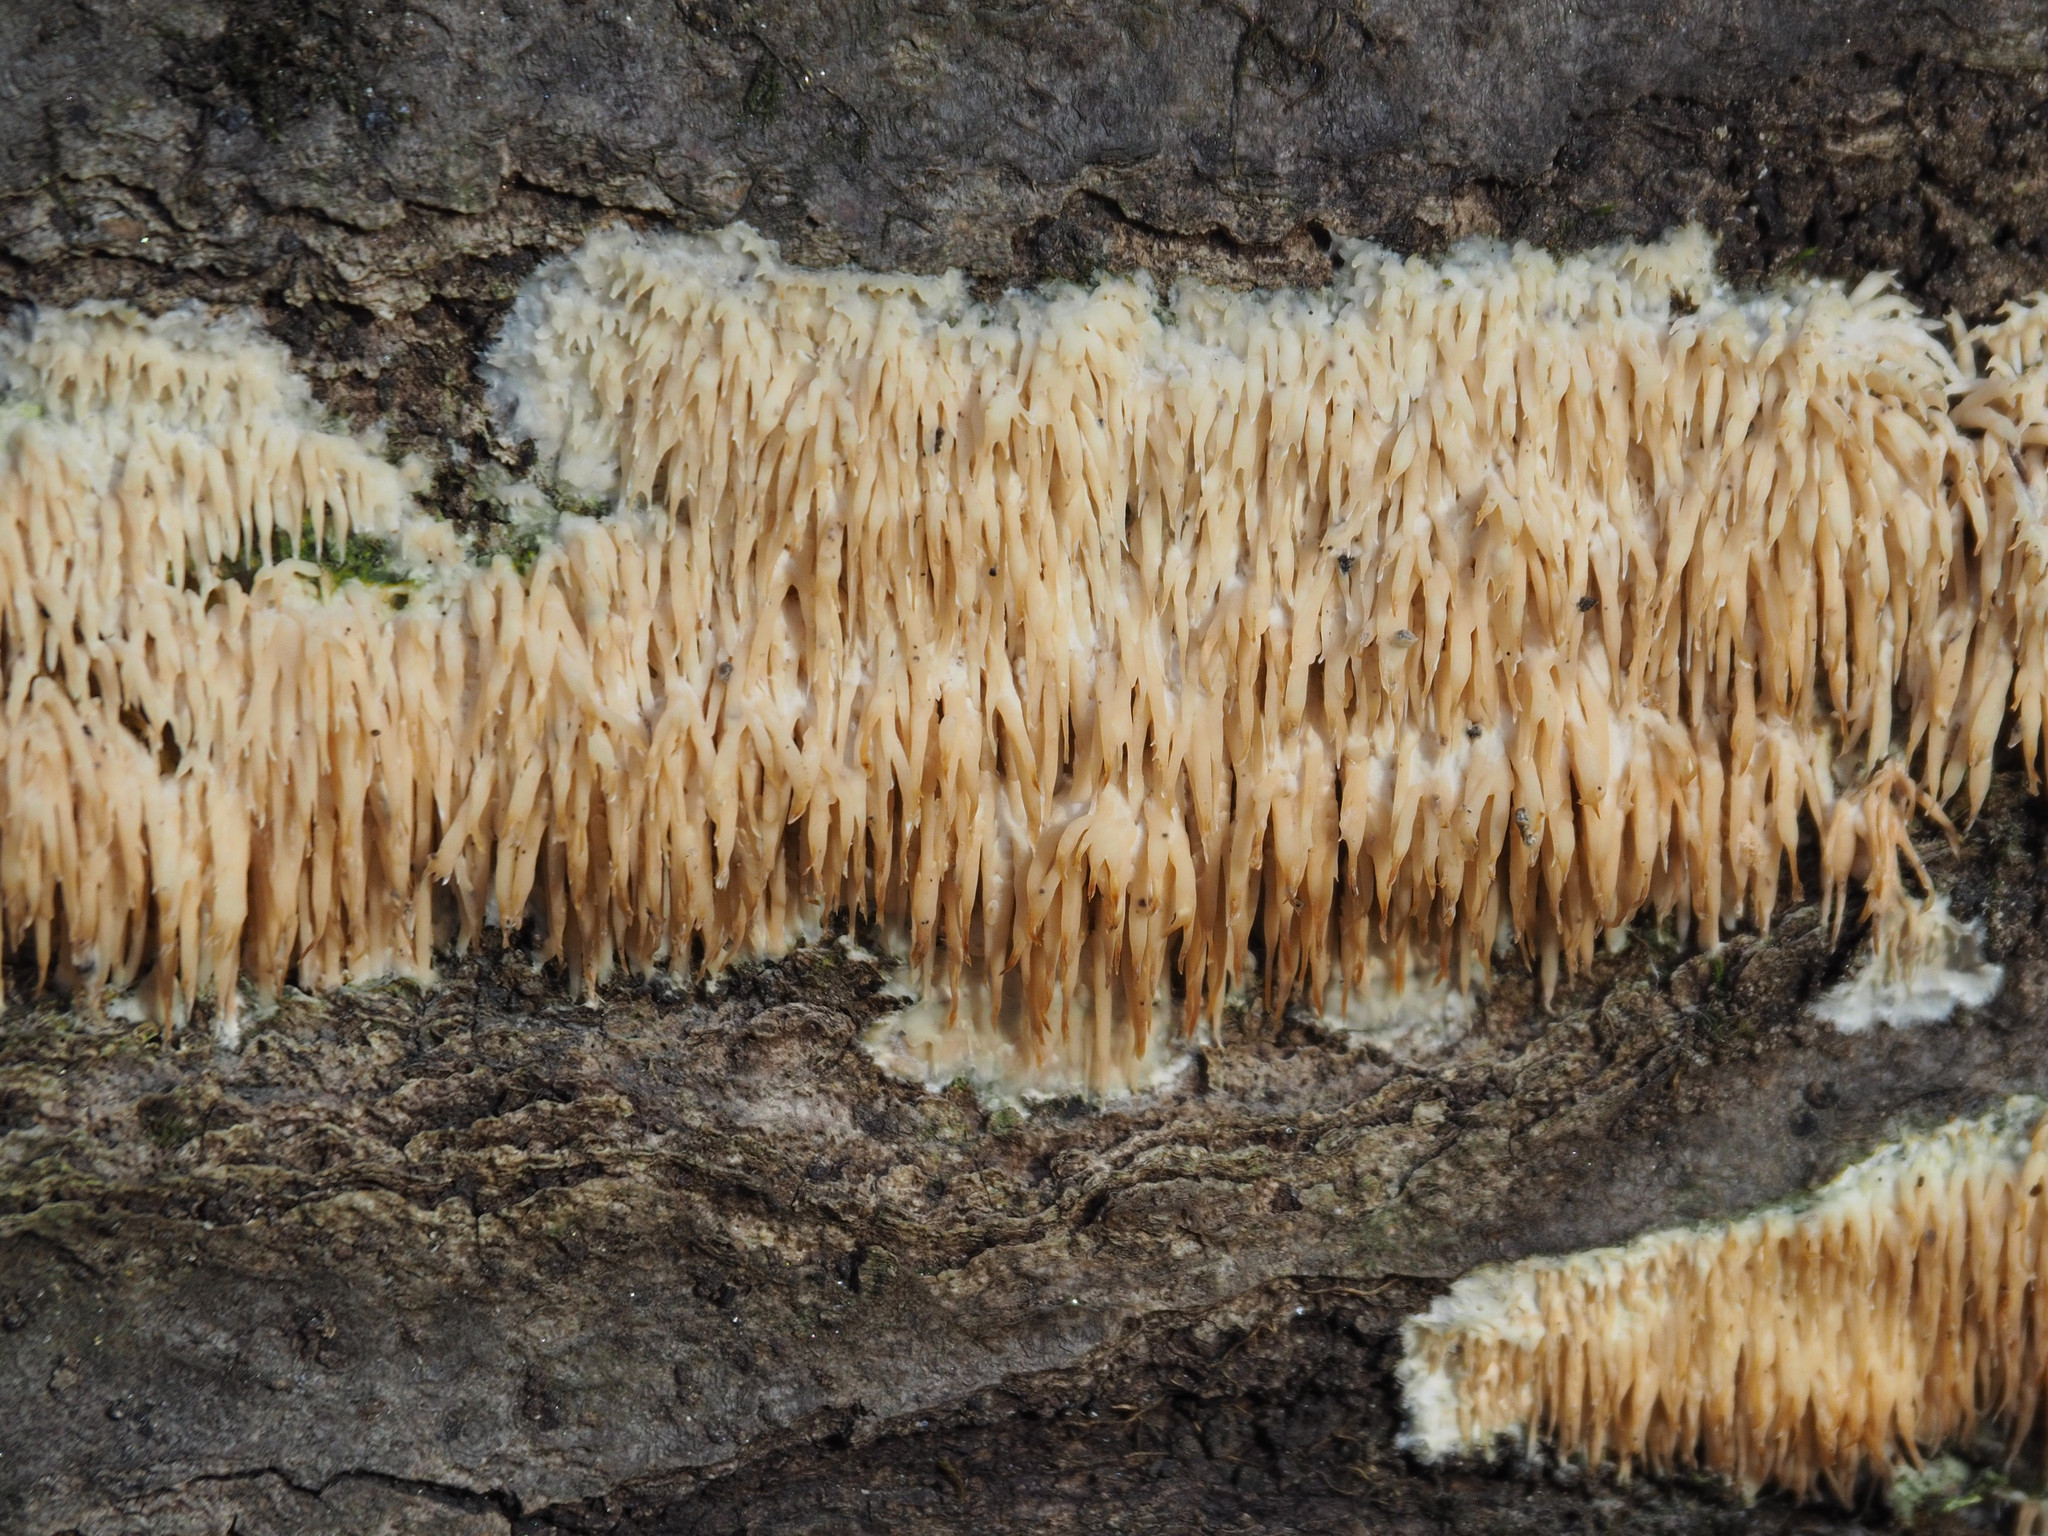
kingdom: Fungi
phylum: Basidiomycota
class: Agaricomycetes
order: Agaricales
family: Radulomycetaceae
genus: Radulomyces
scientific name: Radulomyces copelandii
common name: Asian beauty
